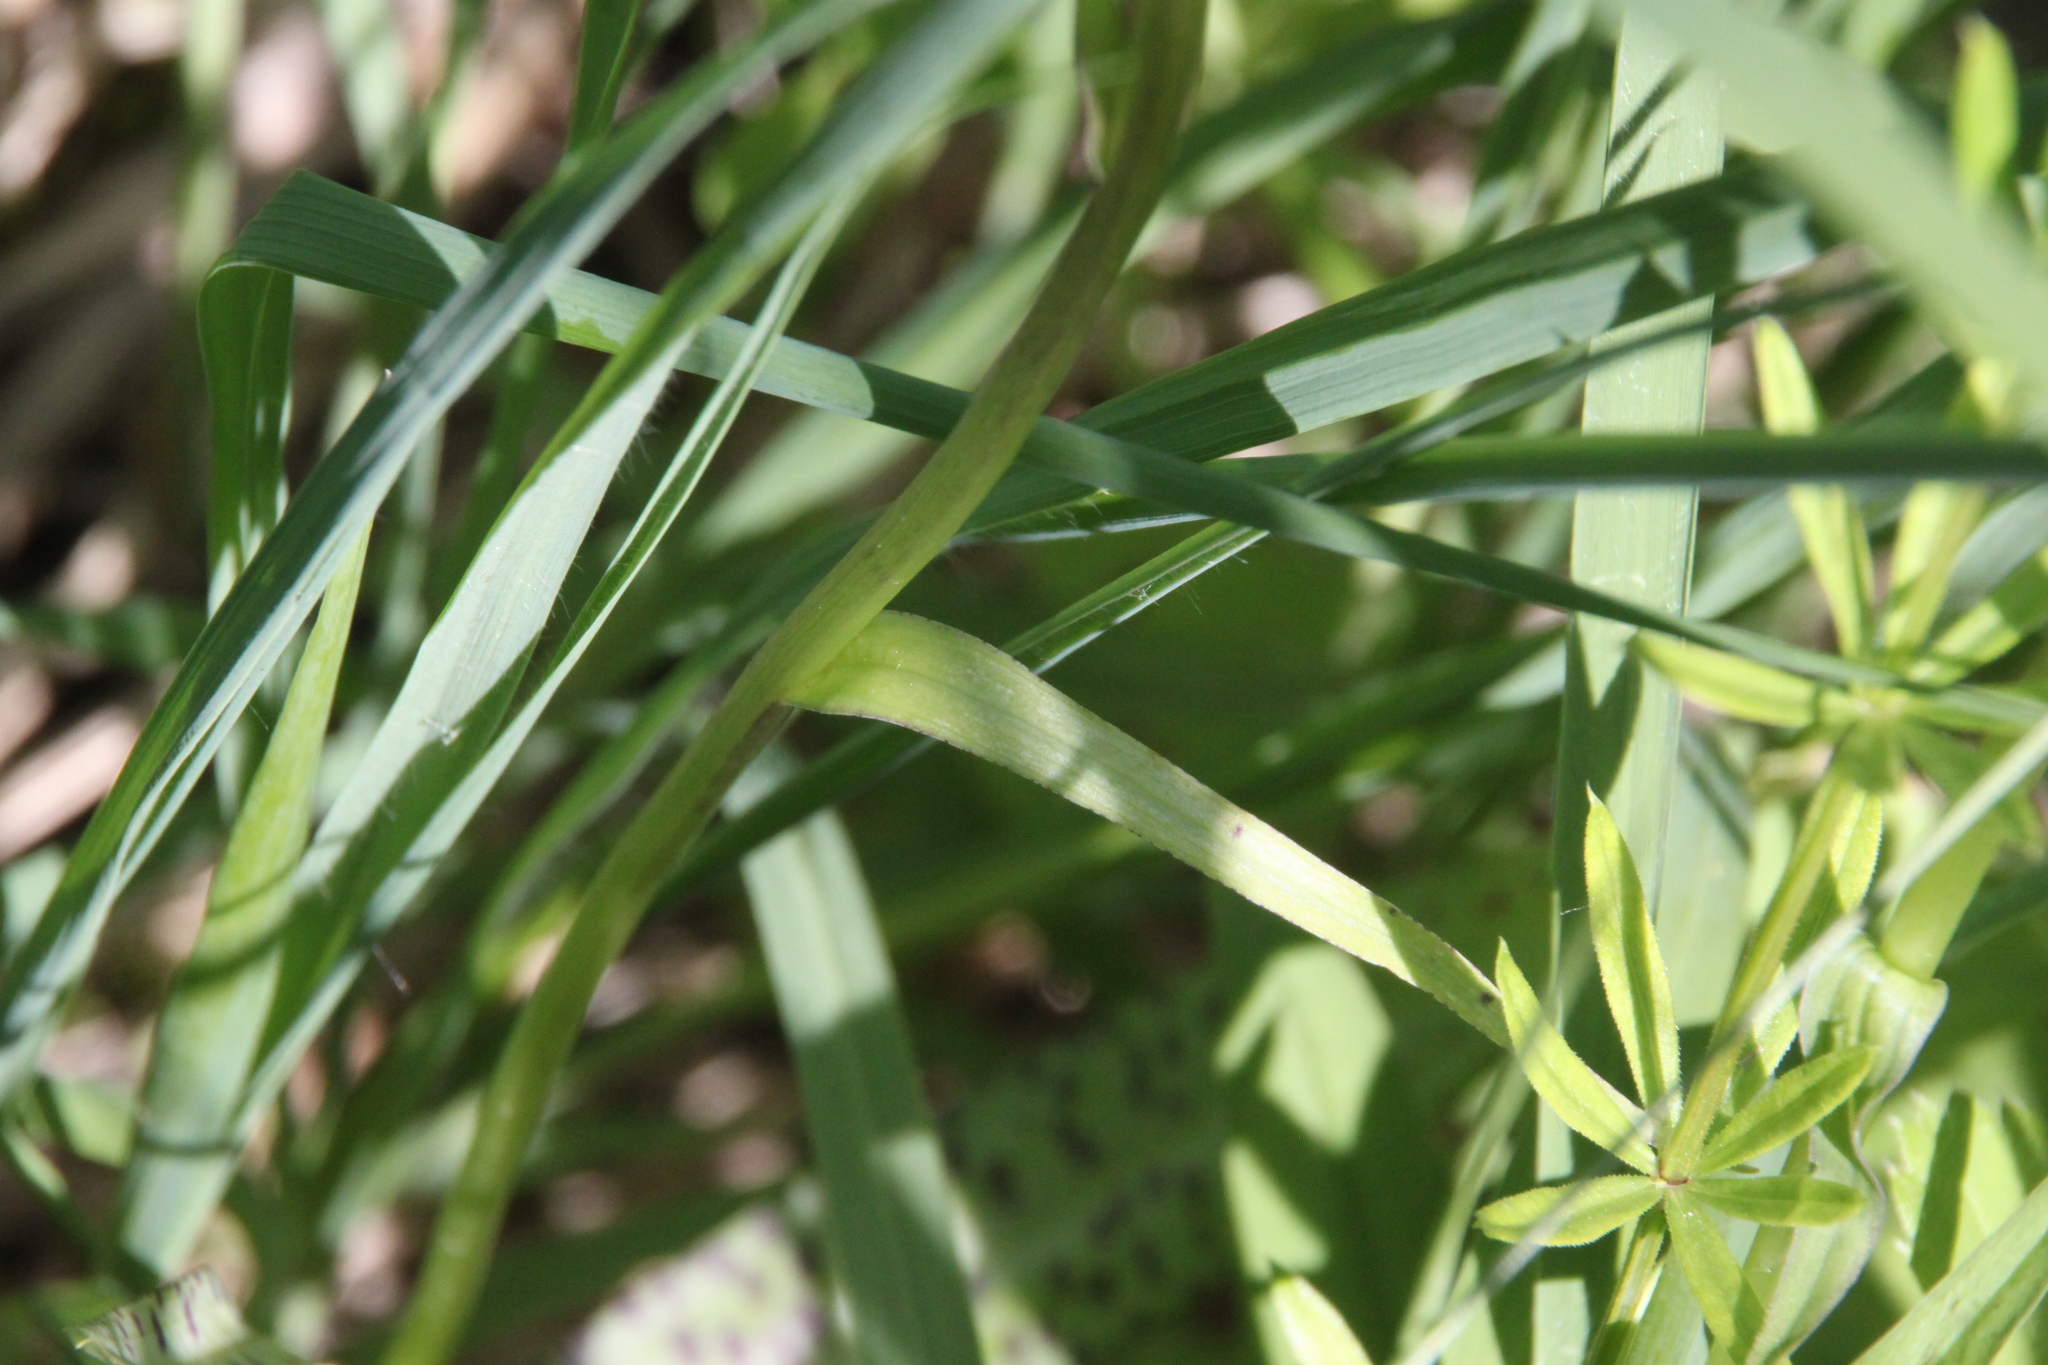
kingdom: Plantae
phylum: Tracheophyta
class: Liliopsida
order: Asparagales
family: Orchidaceae
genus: Dactylorhiza
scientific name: Dactylorhiza maculata
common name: Heath spotted-orchid
